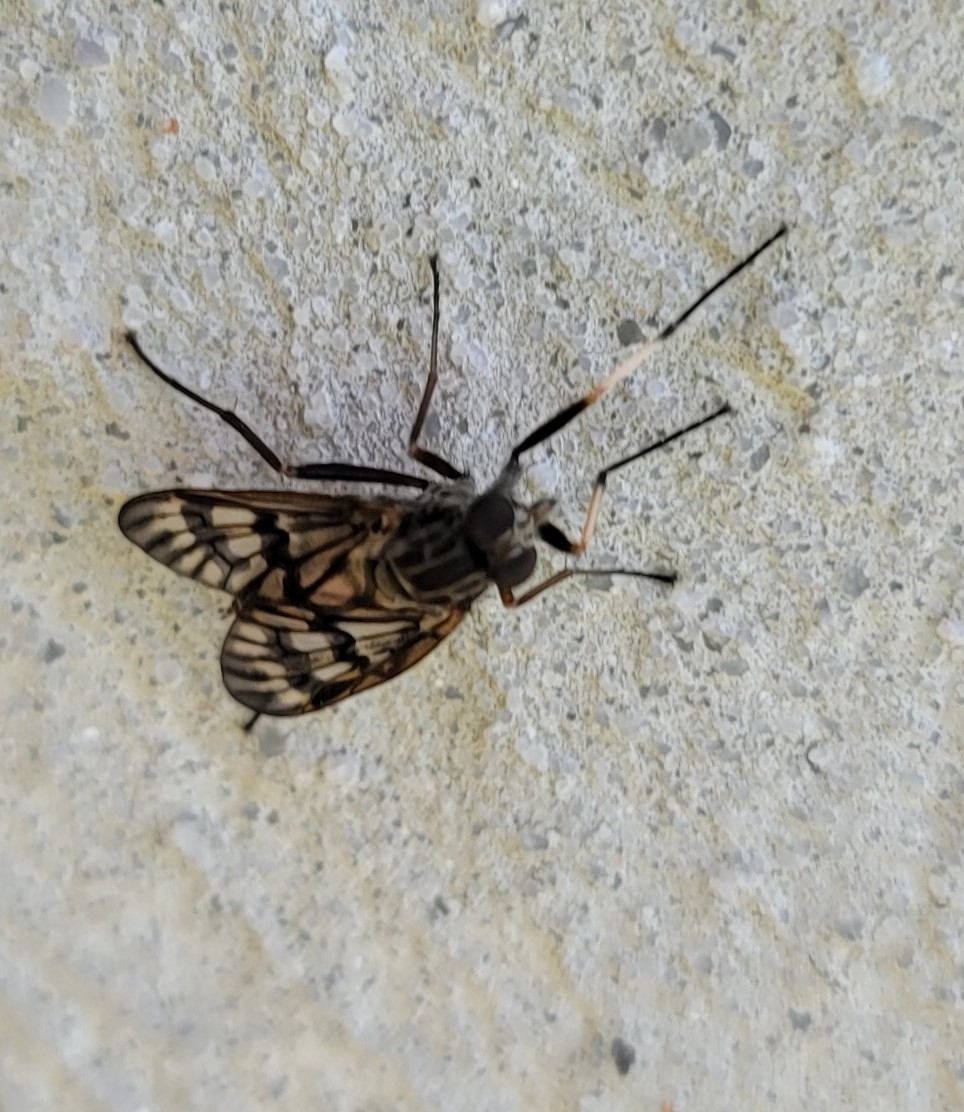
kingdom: Animalia
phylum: Arthropoda
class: Insecta
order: Diptera
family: Rhagionidae
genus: Rhagio
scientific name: Rhagio mystaceus
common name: Common snipe fly
